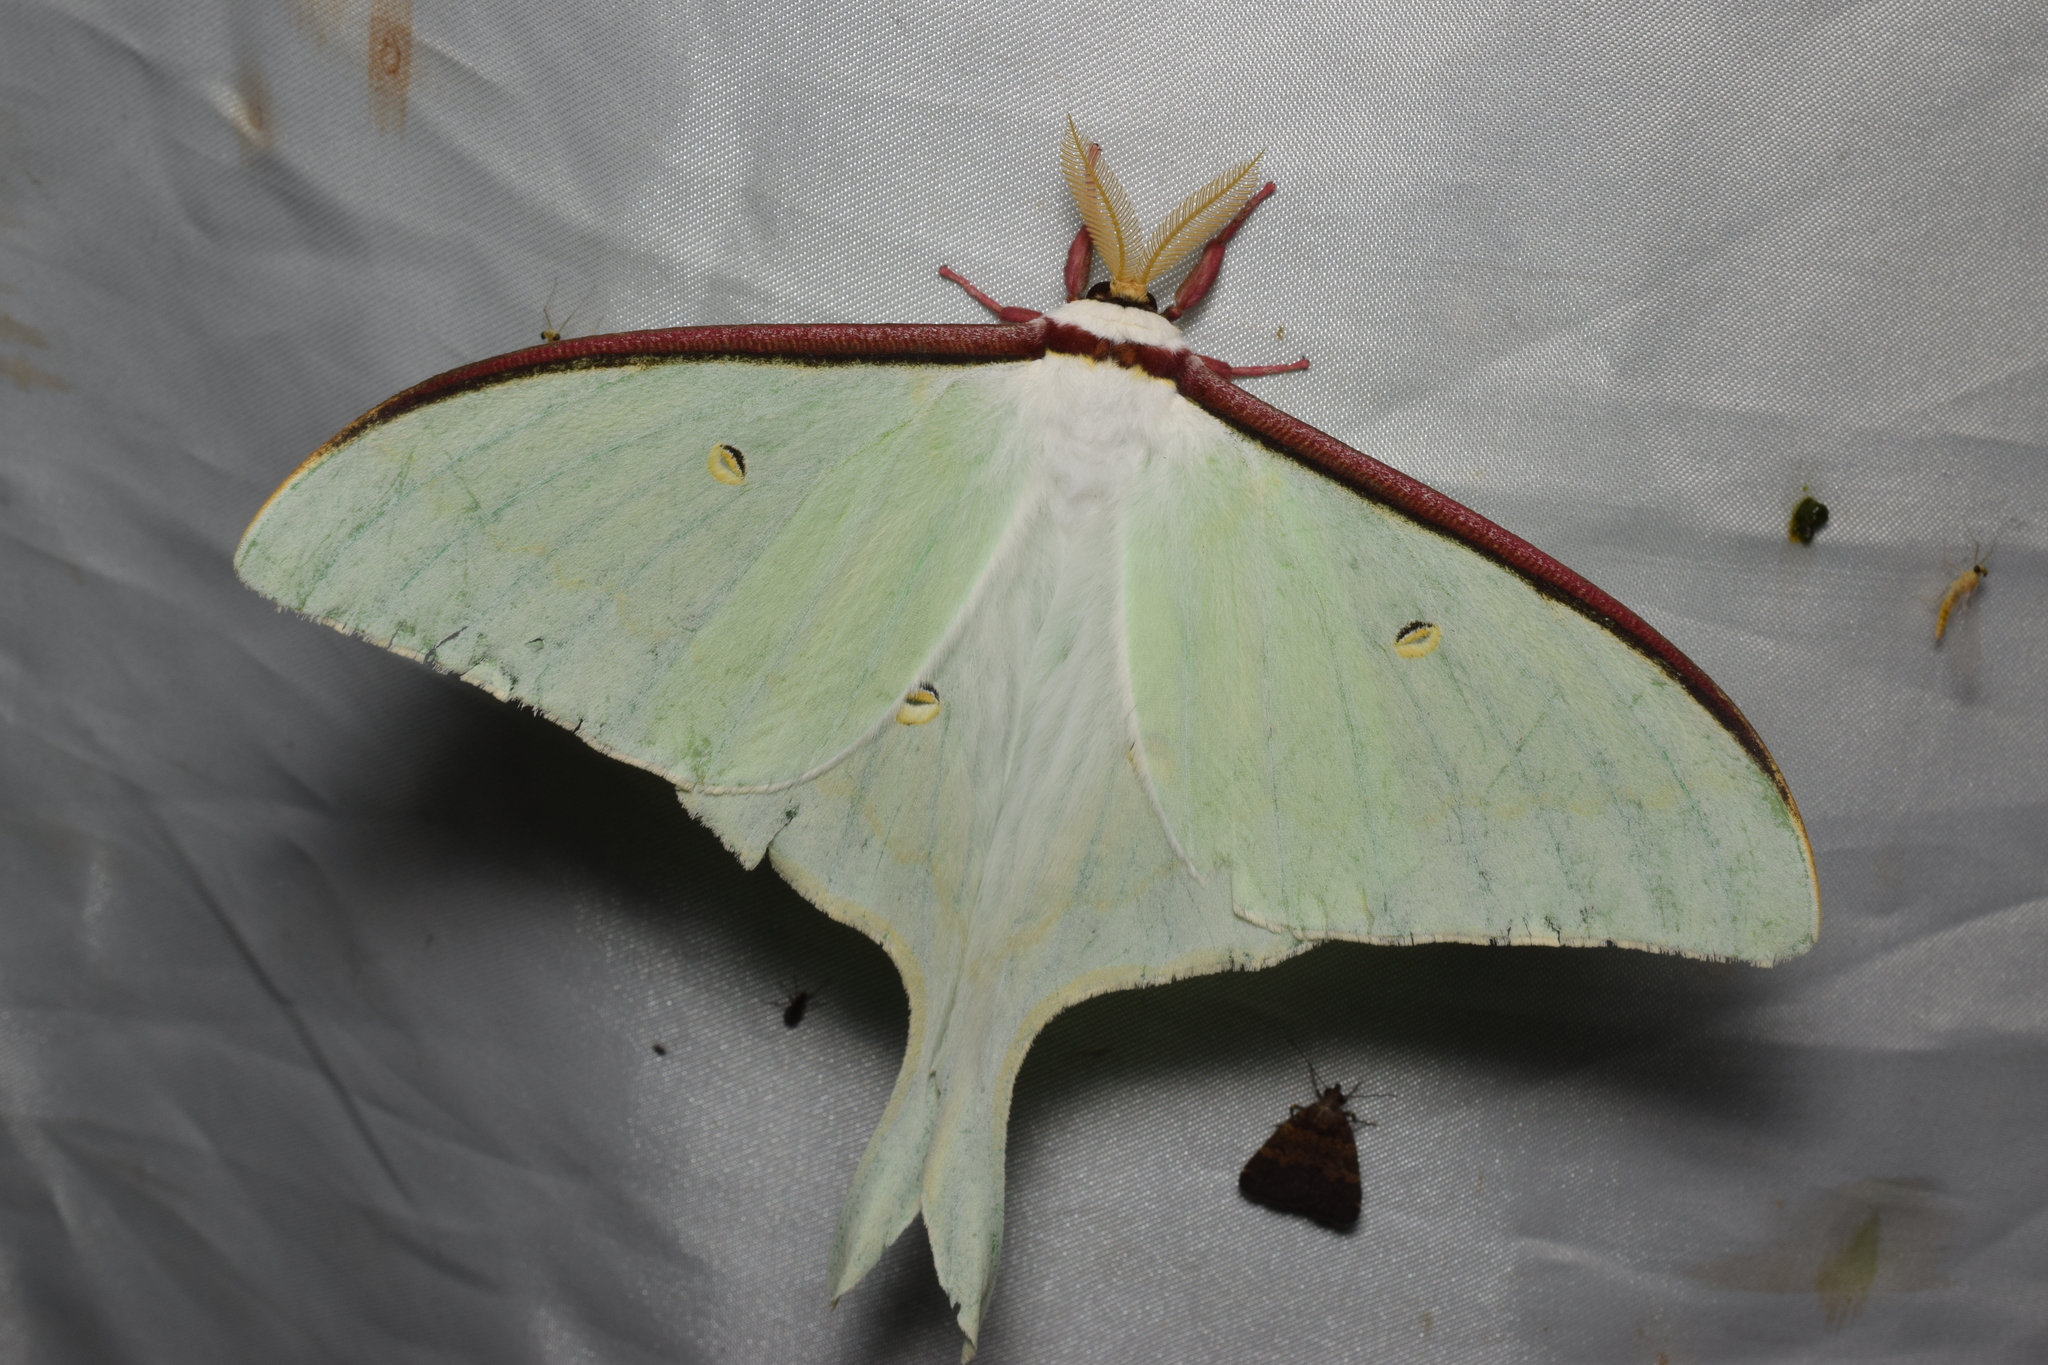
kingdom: Animalia
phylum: Arthropoda
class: Insecta
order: Lepidoptera
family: Saturniidae
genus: Actias
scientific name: Actias aliena
